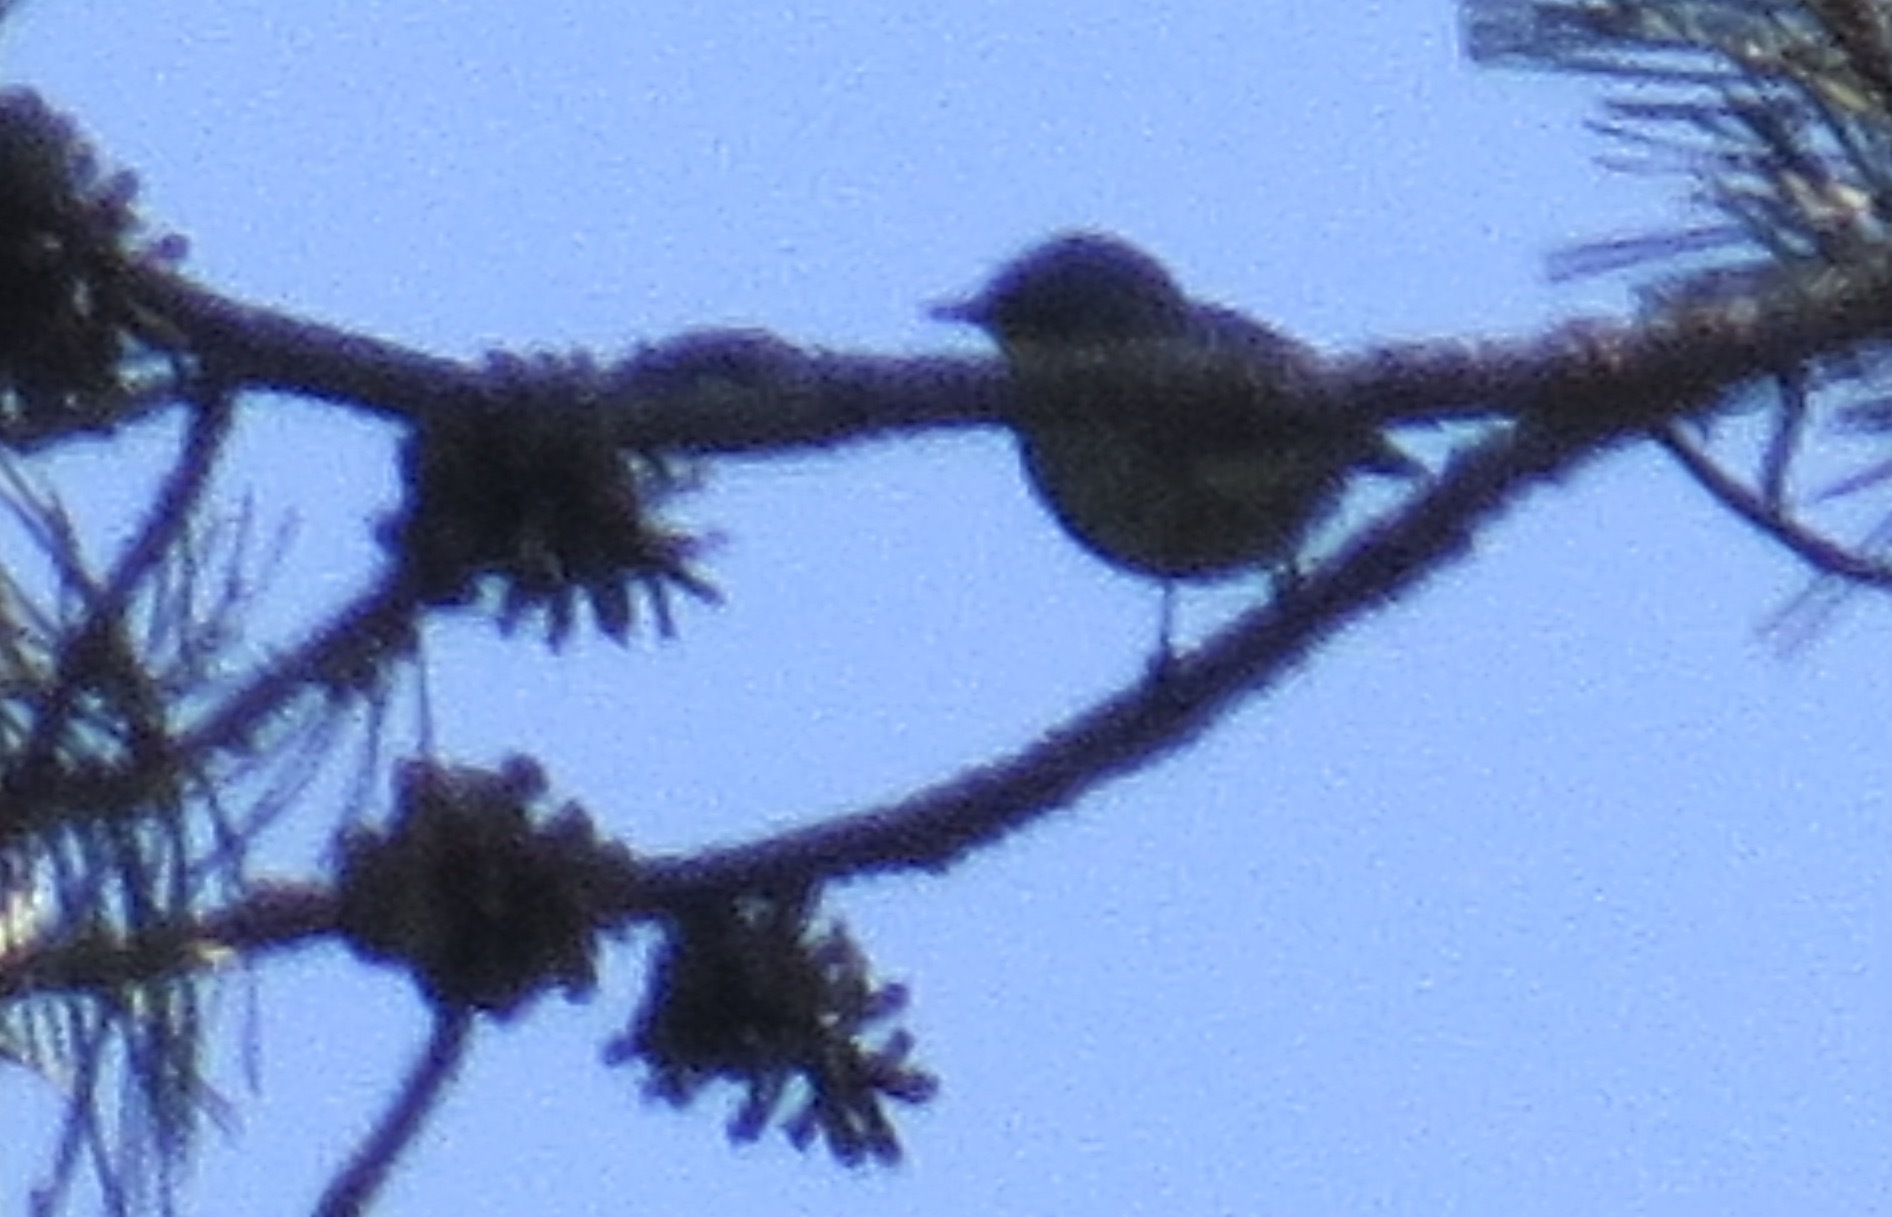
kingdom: Animalia
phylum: Chordata
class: Aves
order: Passeriformes
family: Parulidae
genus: Setophaga
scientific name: Setophaga auduboni
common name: Audubon's warbler
